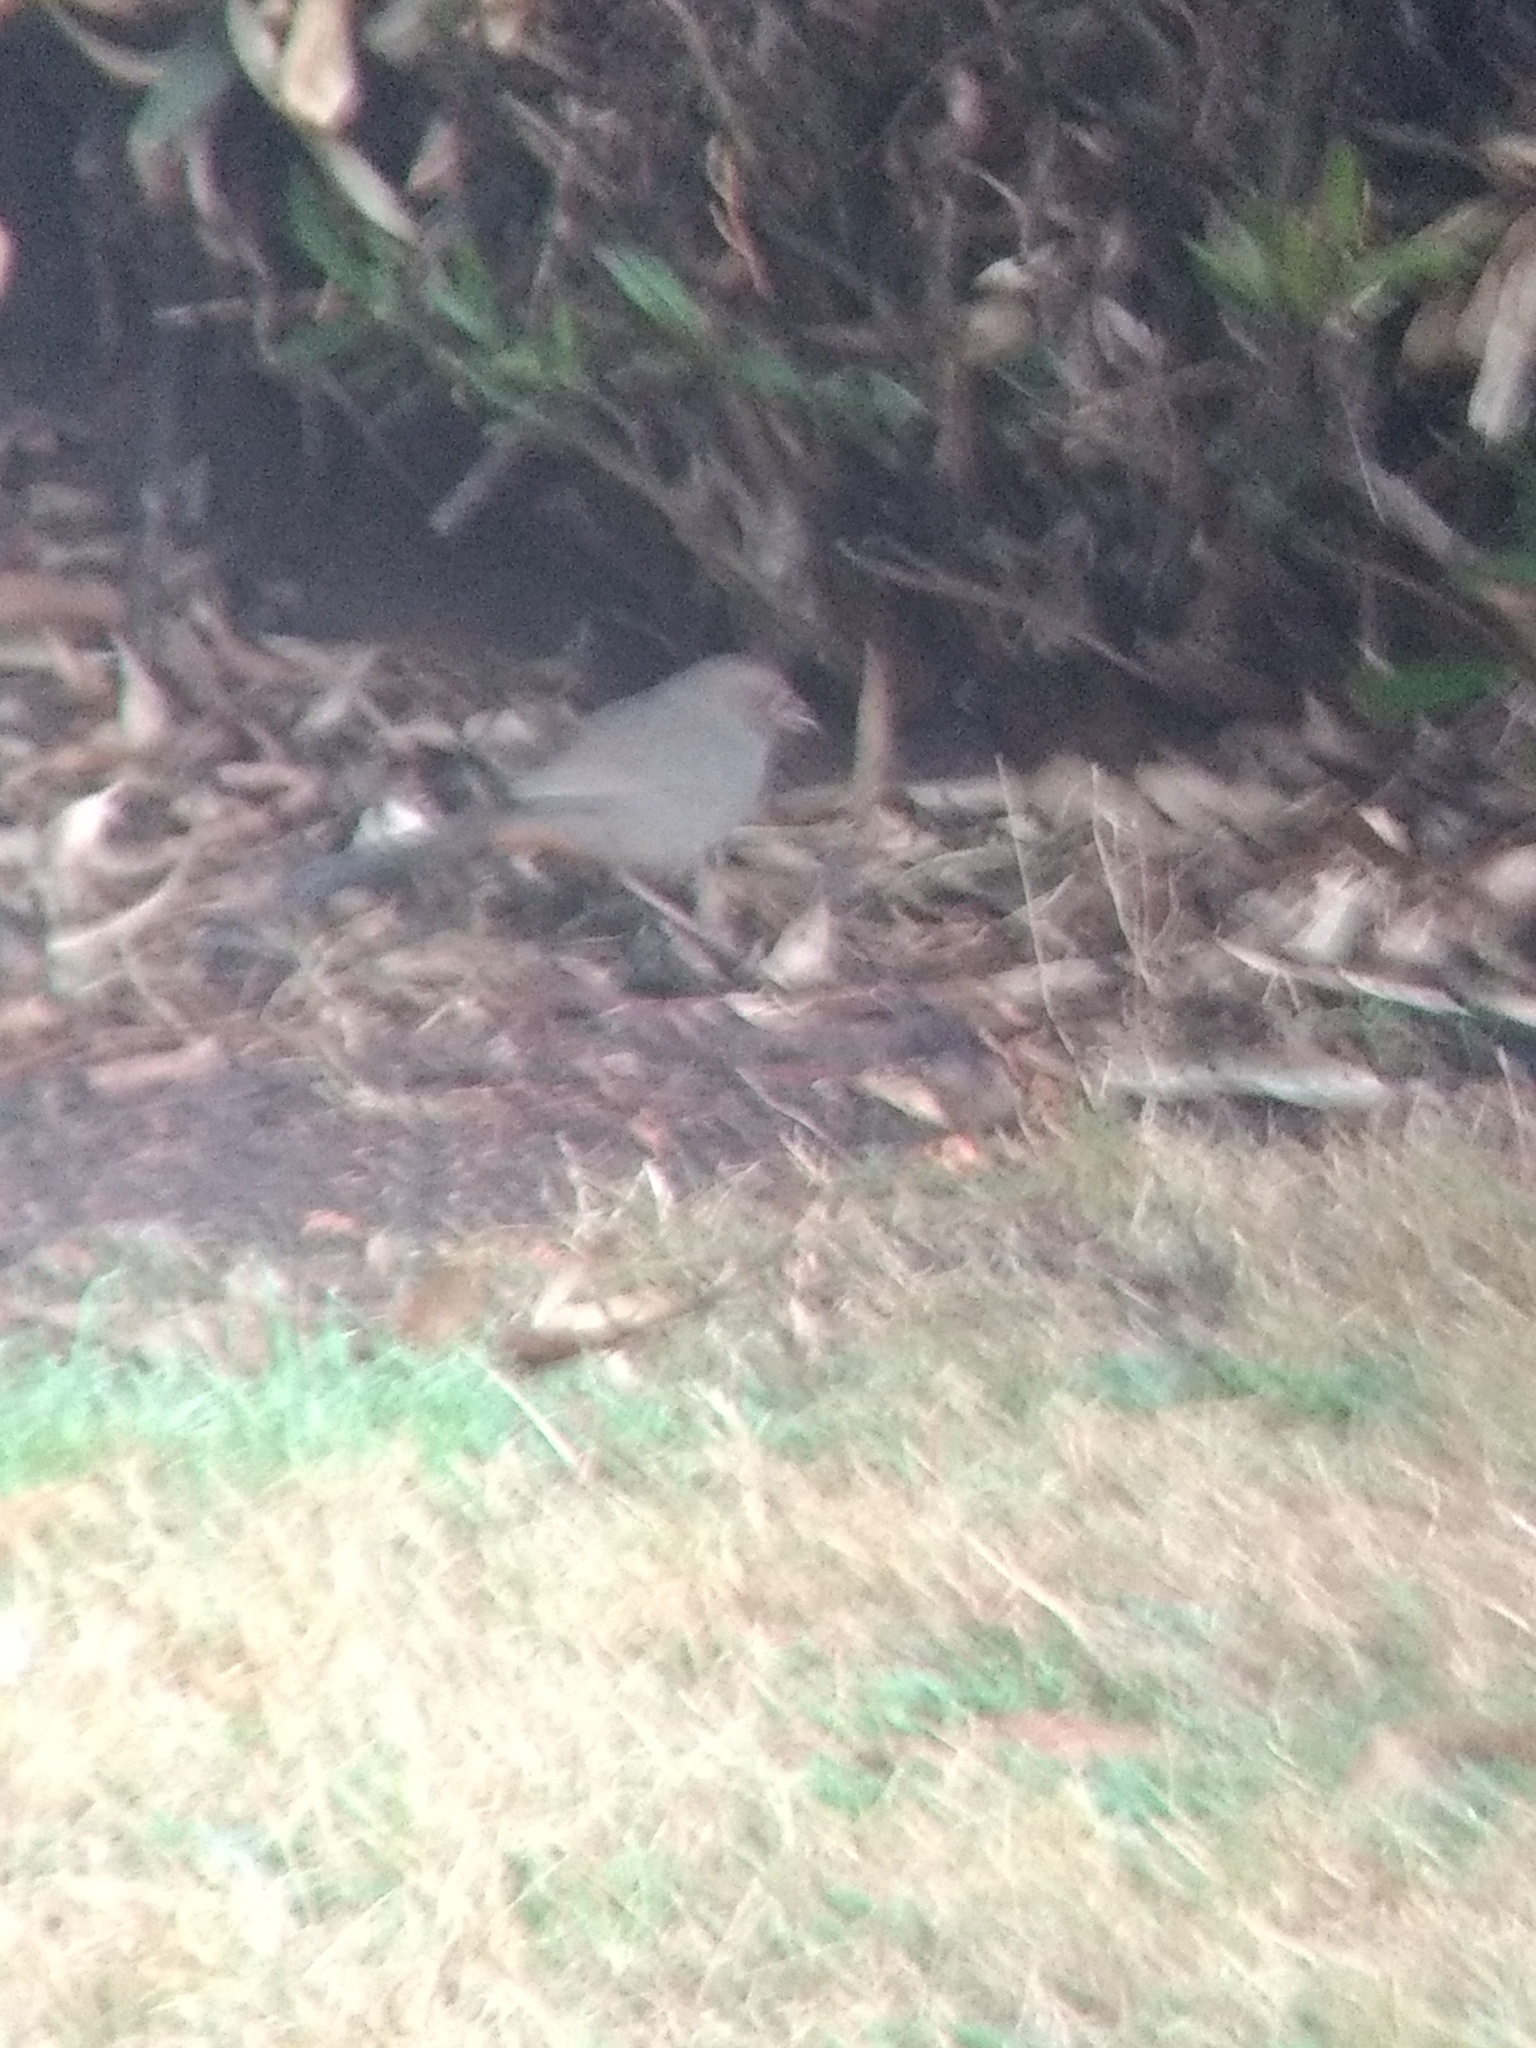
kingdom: Animalia
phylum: Chordata
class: Aves
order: Passeriformes
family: Passerellidae
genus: Melozone
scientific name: Melozone crissalis
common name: California towhee
